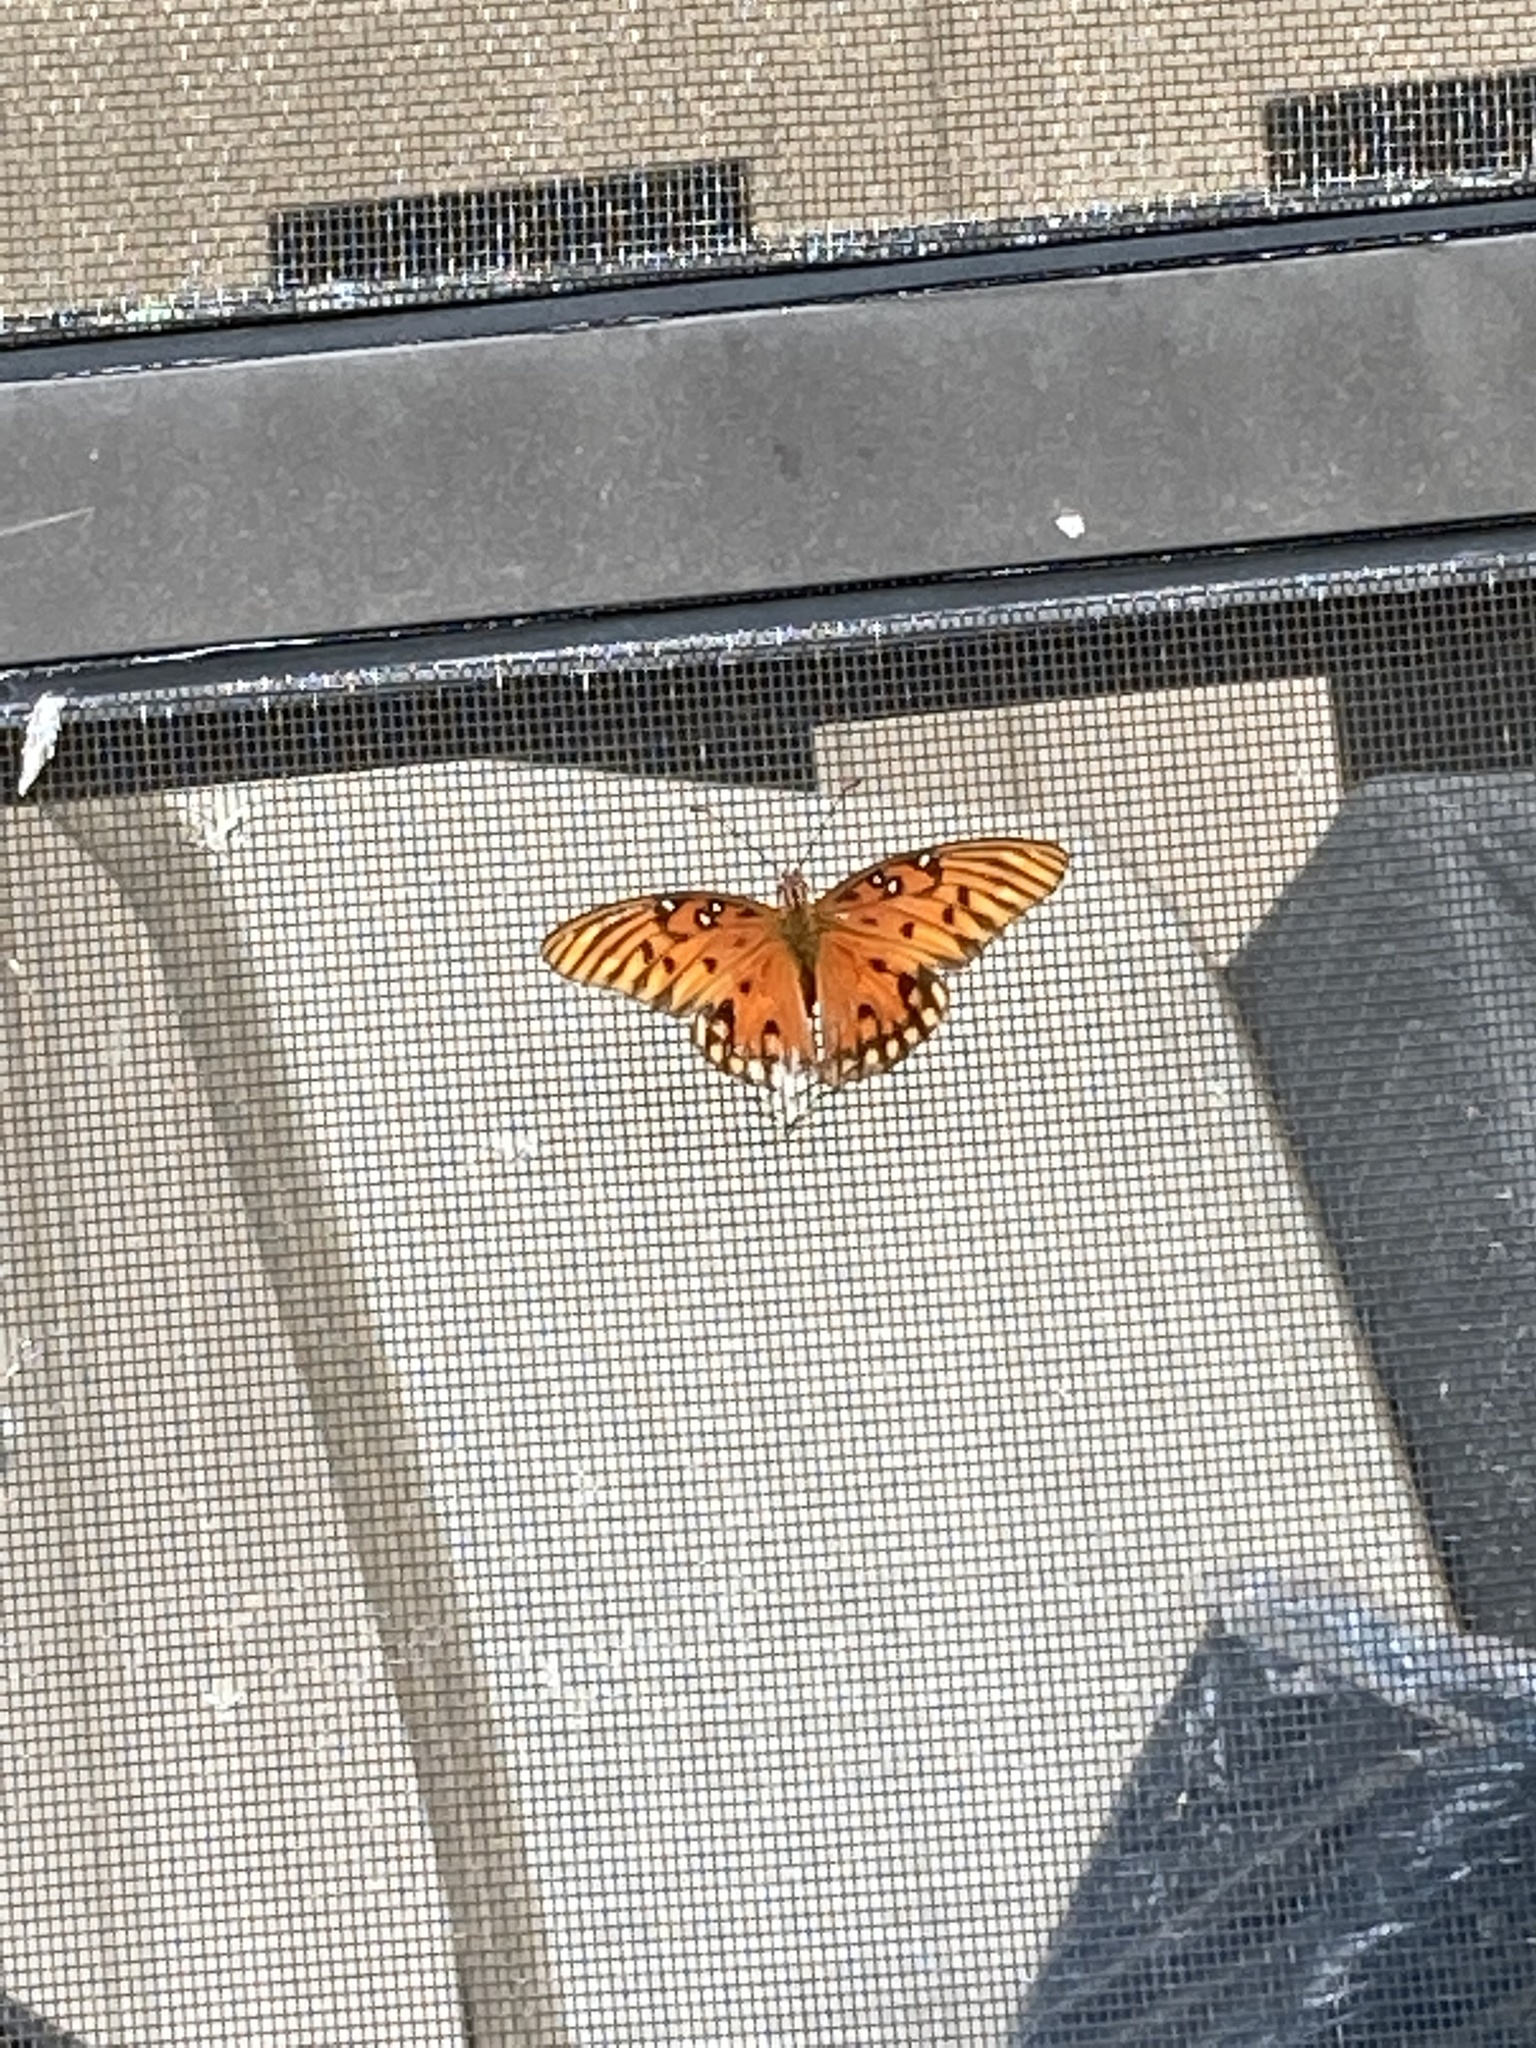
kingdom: Animalia
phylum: Arthropoda
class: Insecta
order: Lepidoptera
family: Nymphalidae
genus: Dione
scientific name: Dione vanillae
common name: Gulf fritillary
